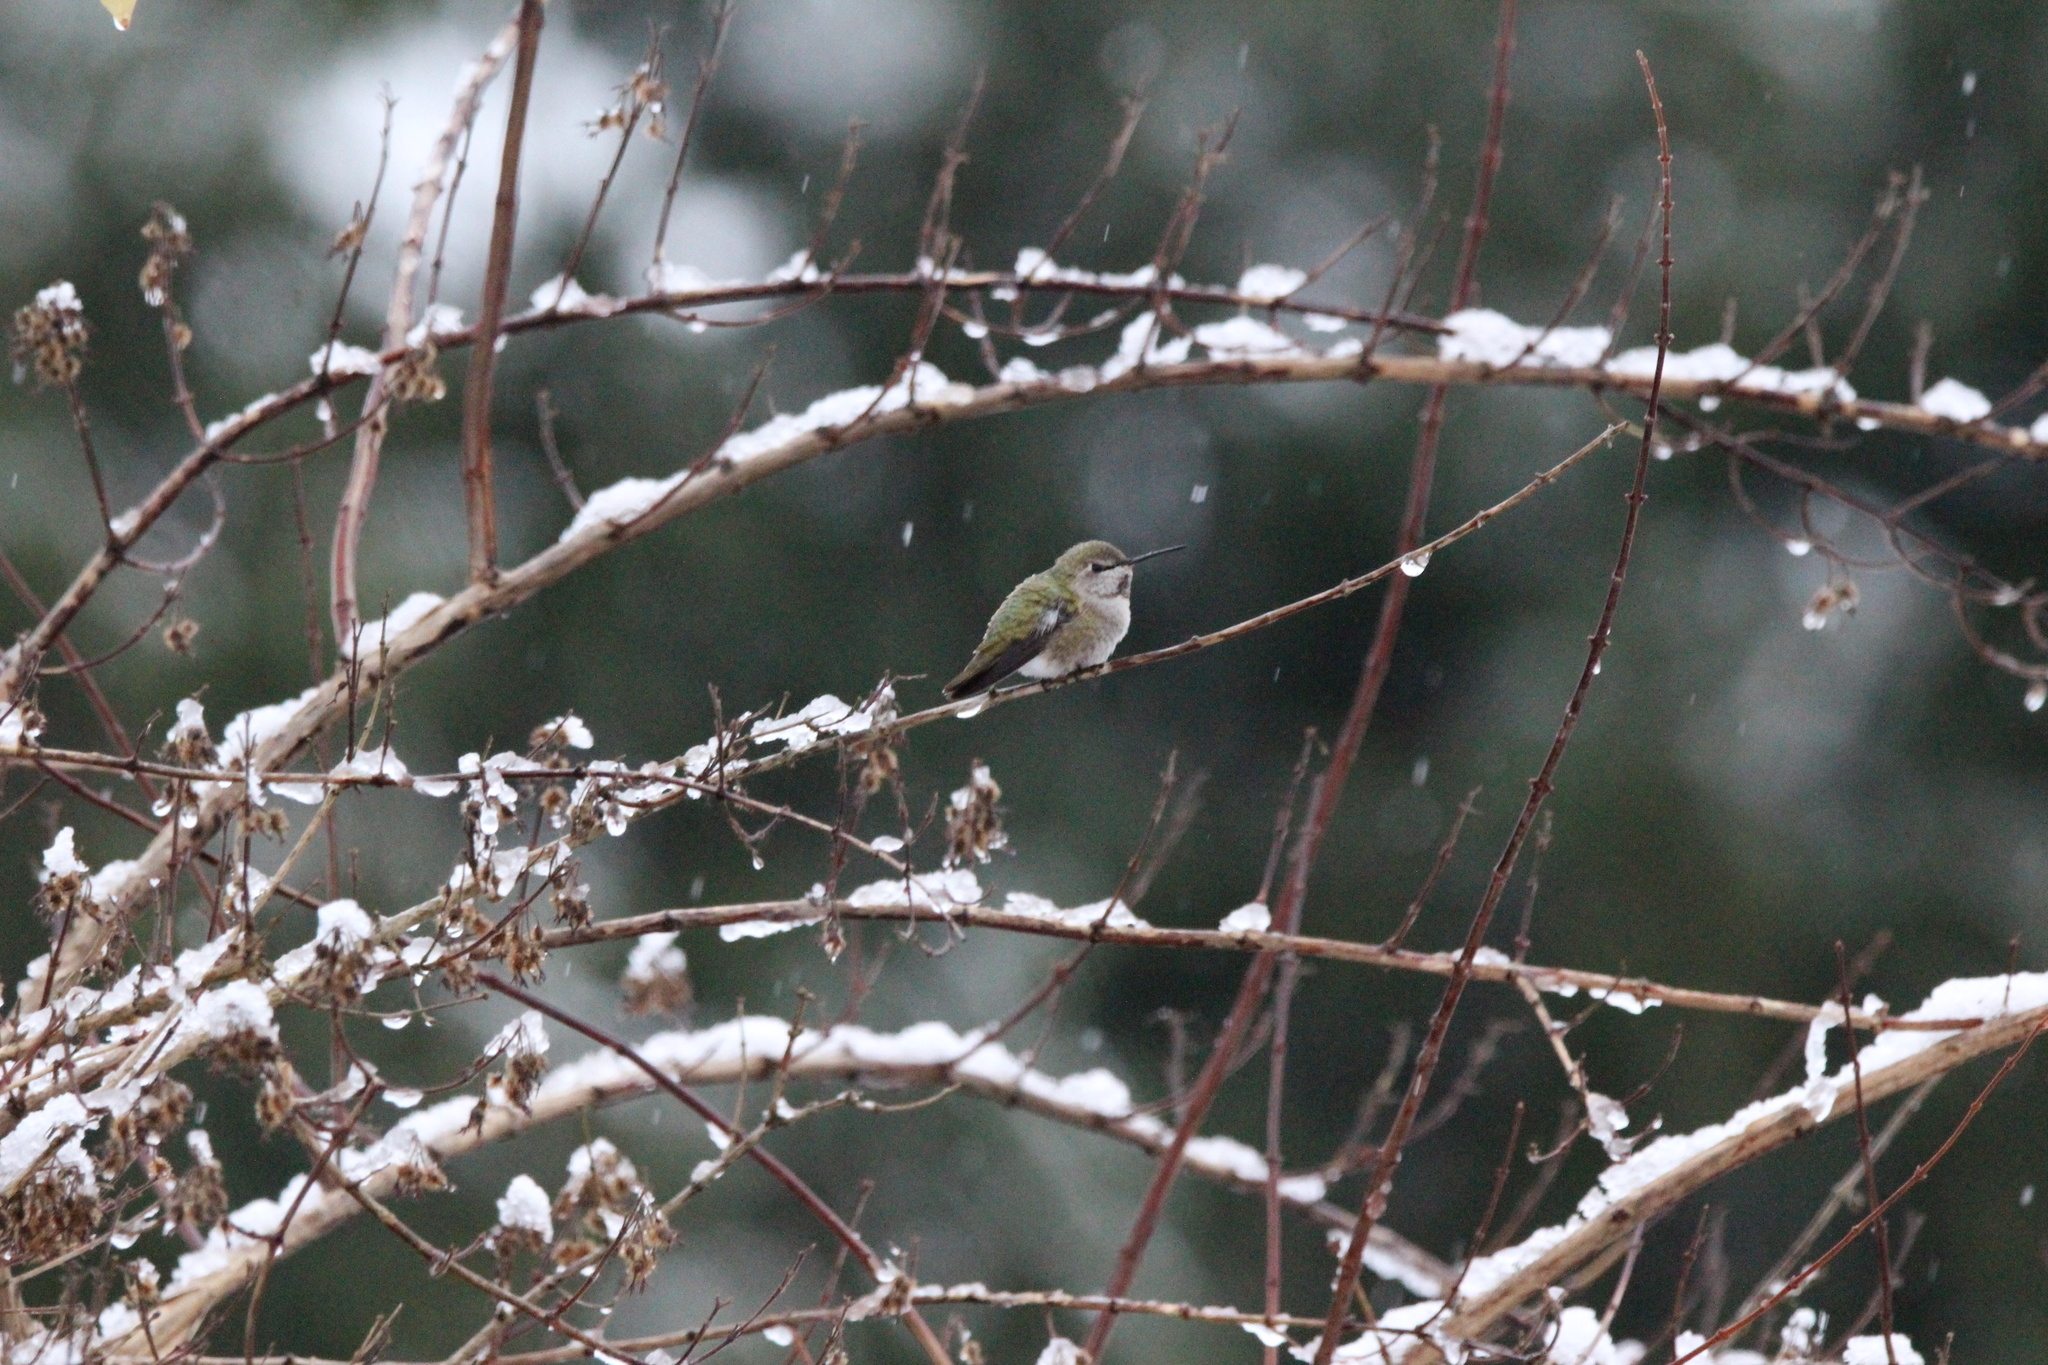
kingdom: Animalia
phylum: Chordata
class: Aves
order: Apodiformes
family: Trochilidae
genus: Calypte
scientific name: Calypte anna
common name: Anna's hummingbird
